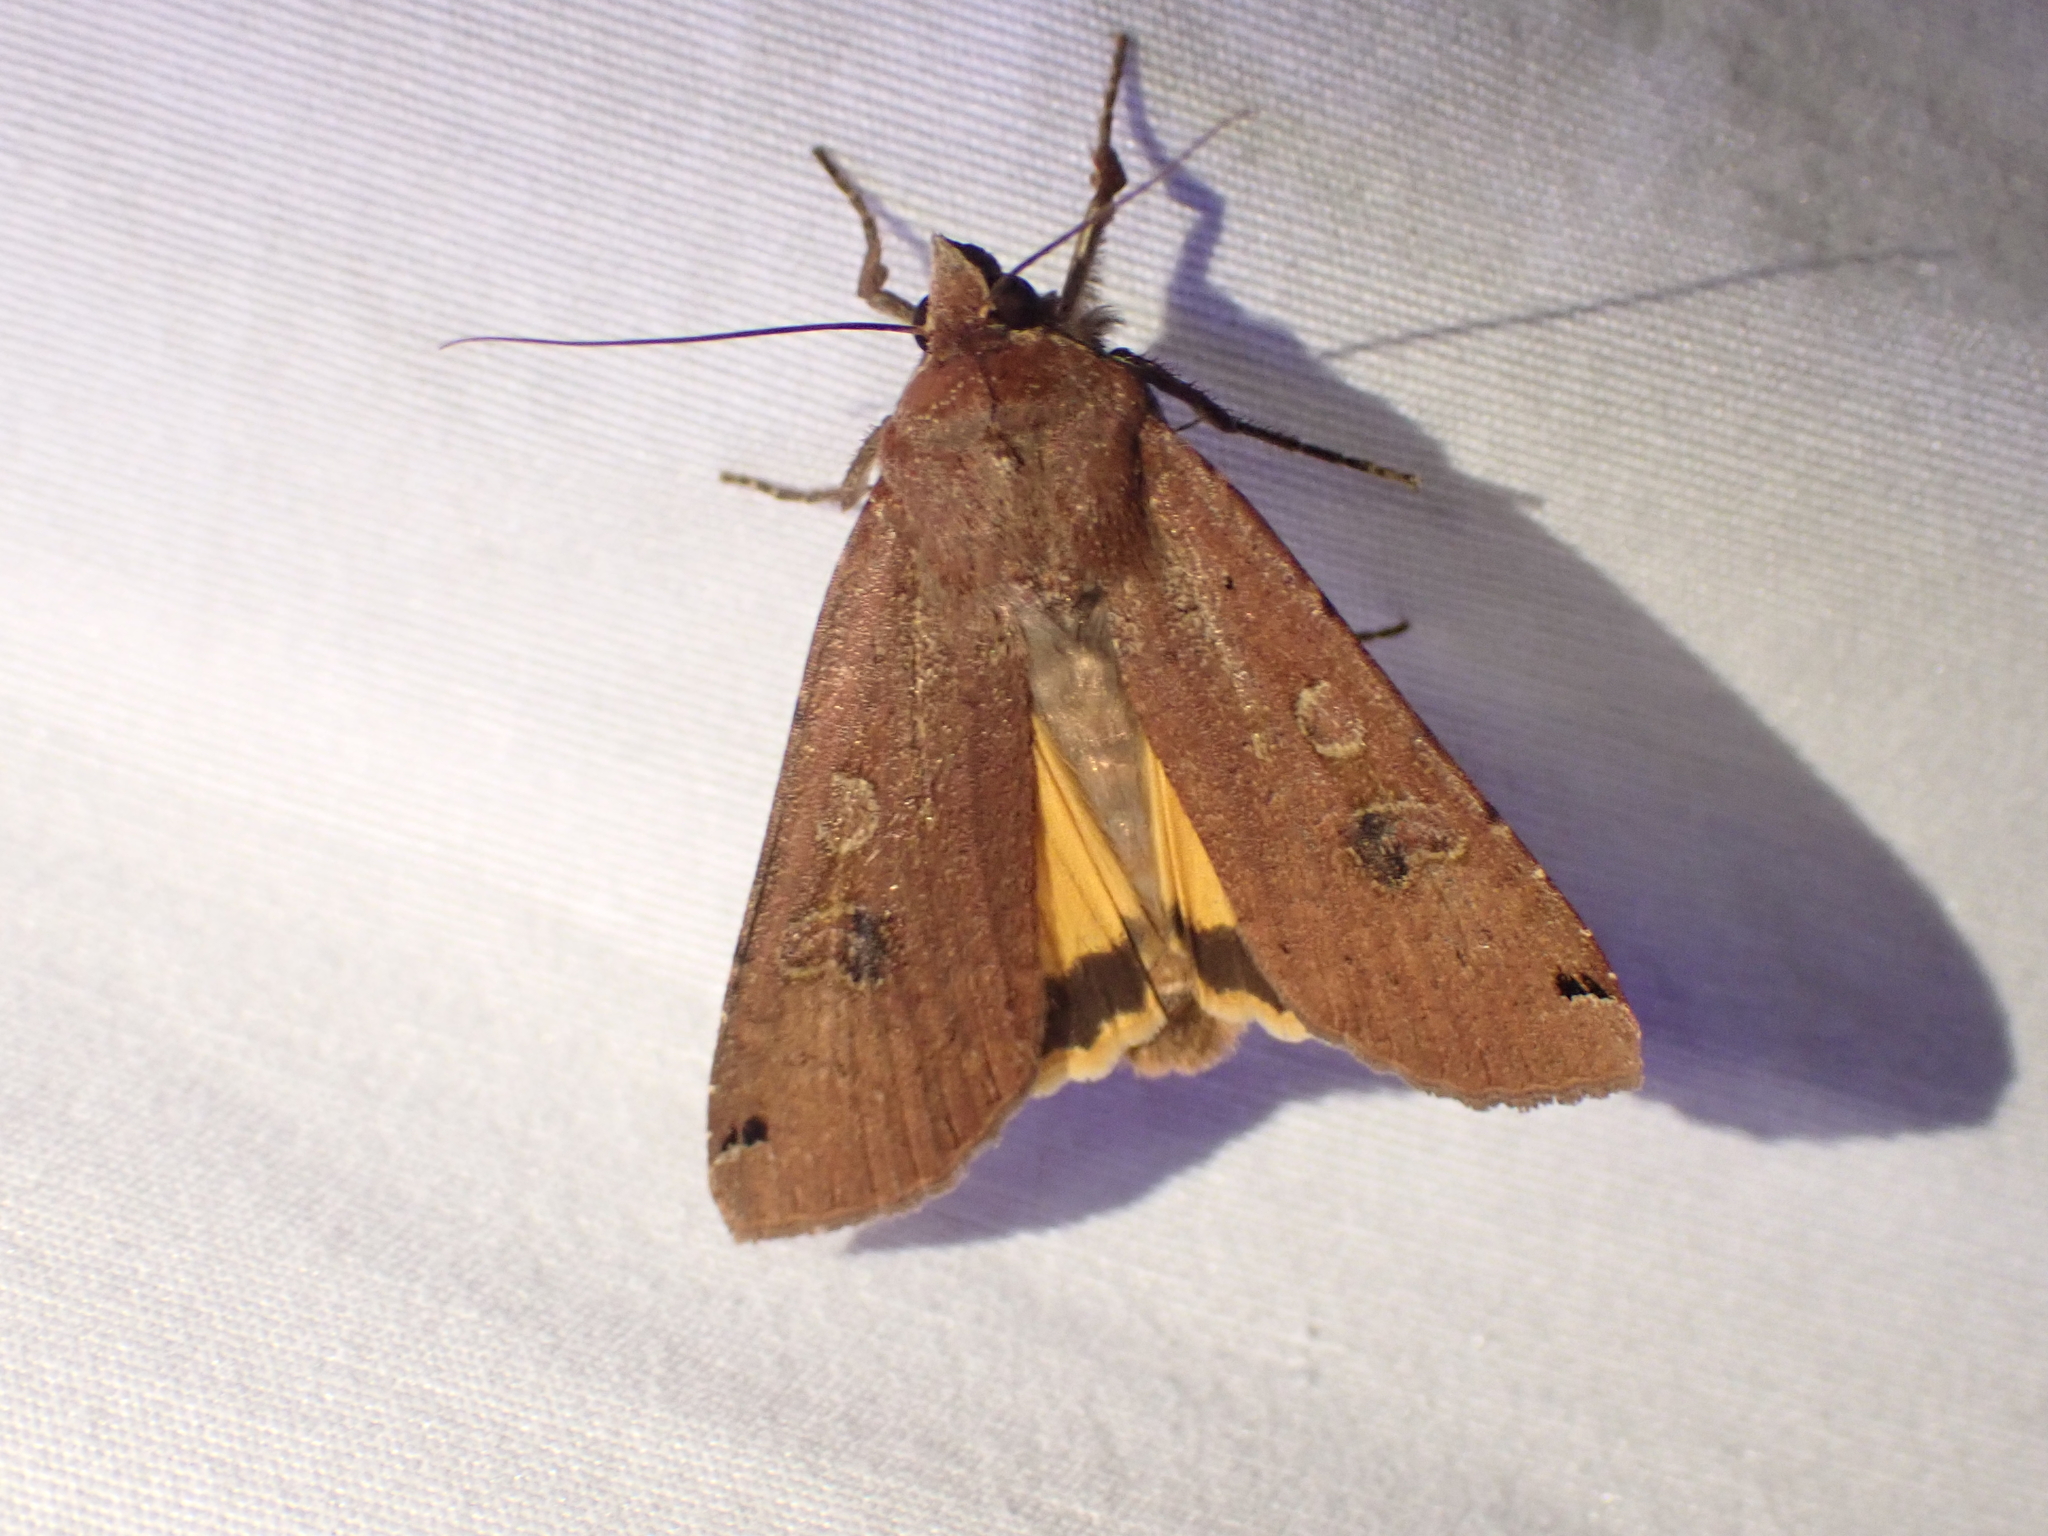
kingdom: Animalia
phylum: Arthropoda
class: Insecta
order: Lepidoptera
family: Noctuidae
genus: Noctua
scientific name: Noctua pronuba
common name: Large yellow underwing
